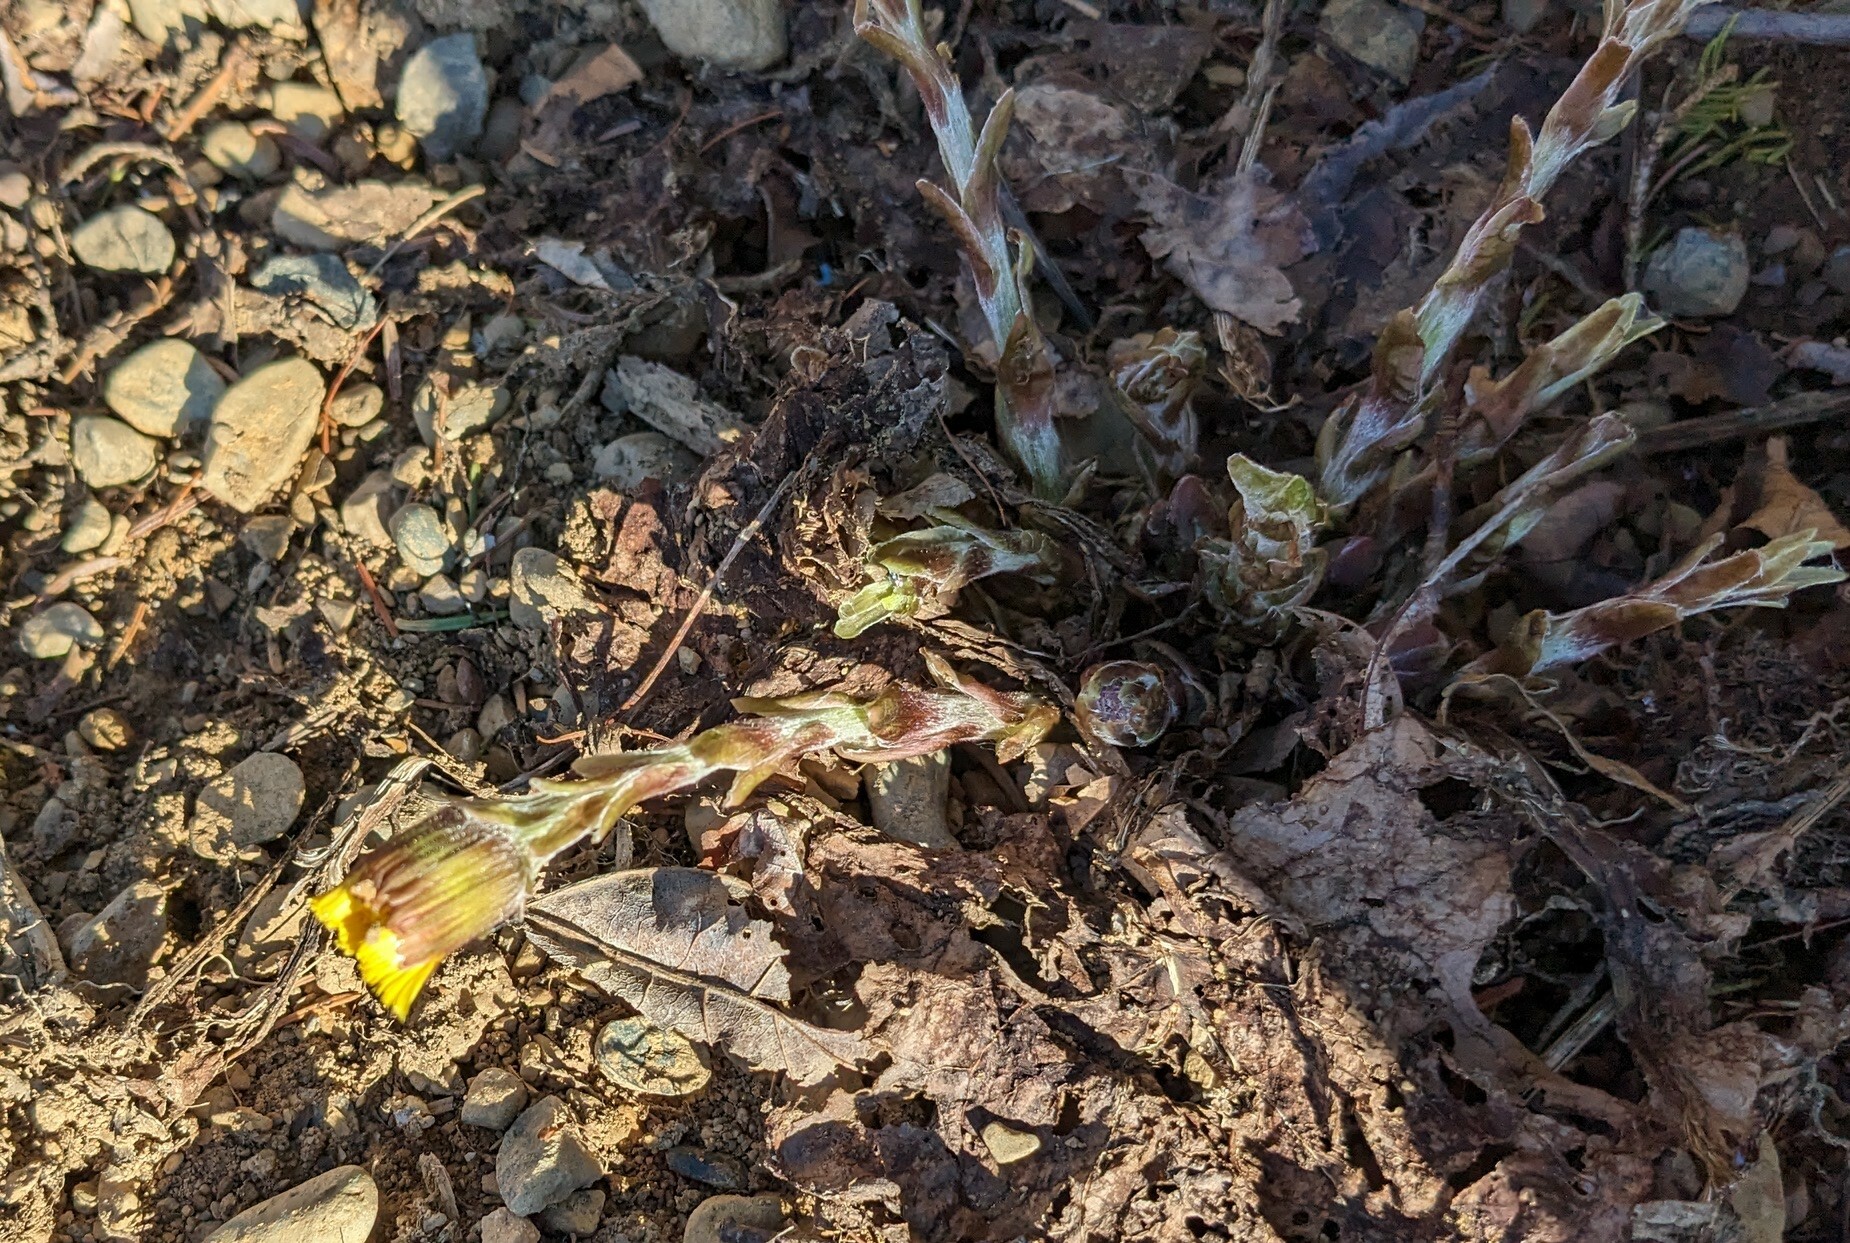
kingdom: Plantae
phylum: Tracheophyta
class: Magnoliopsida
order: Asterales
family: Asteraceae
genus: Tussilago
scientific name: Tussilago farfara
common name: Coltsfoot
